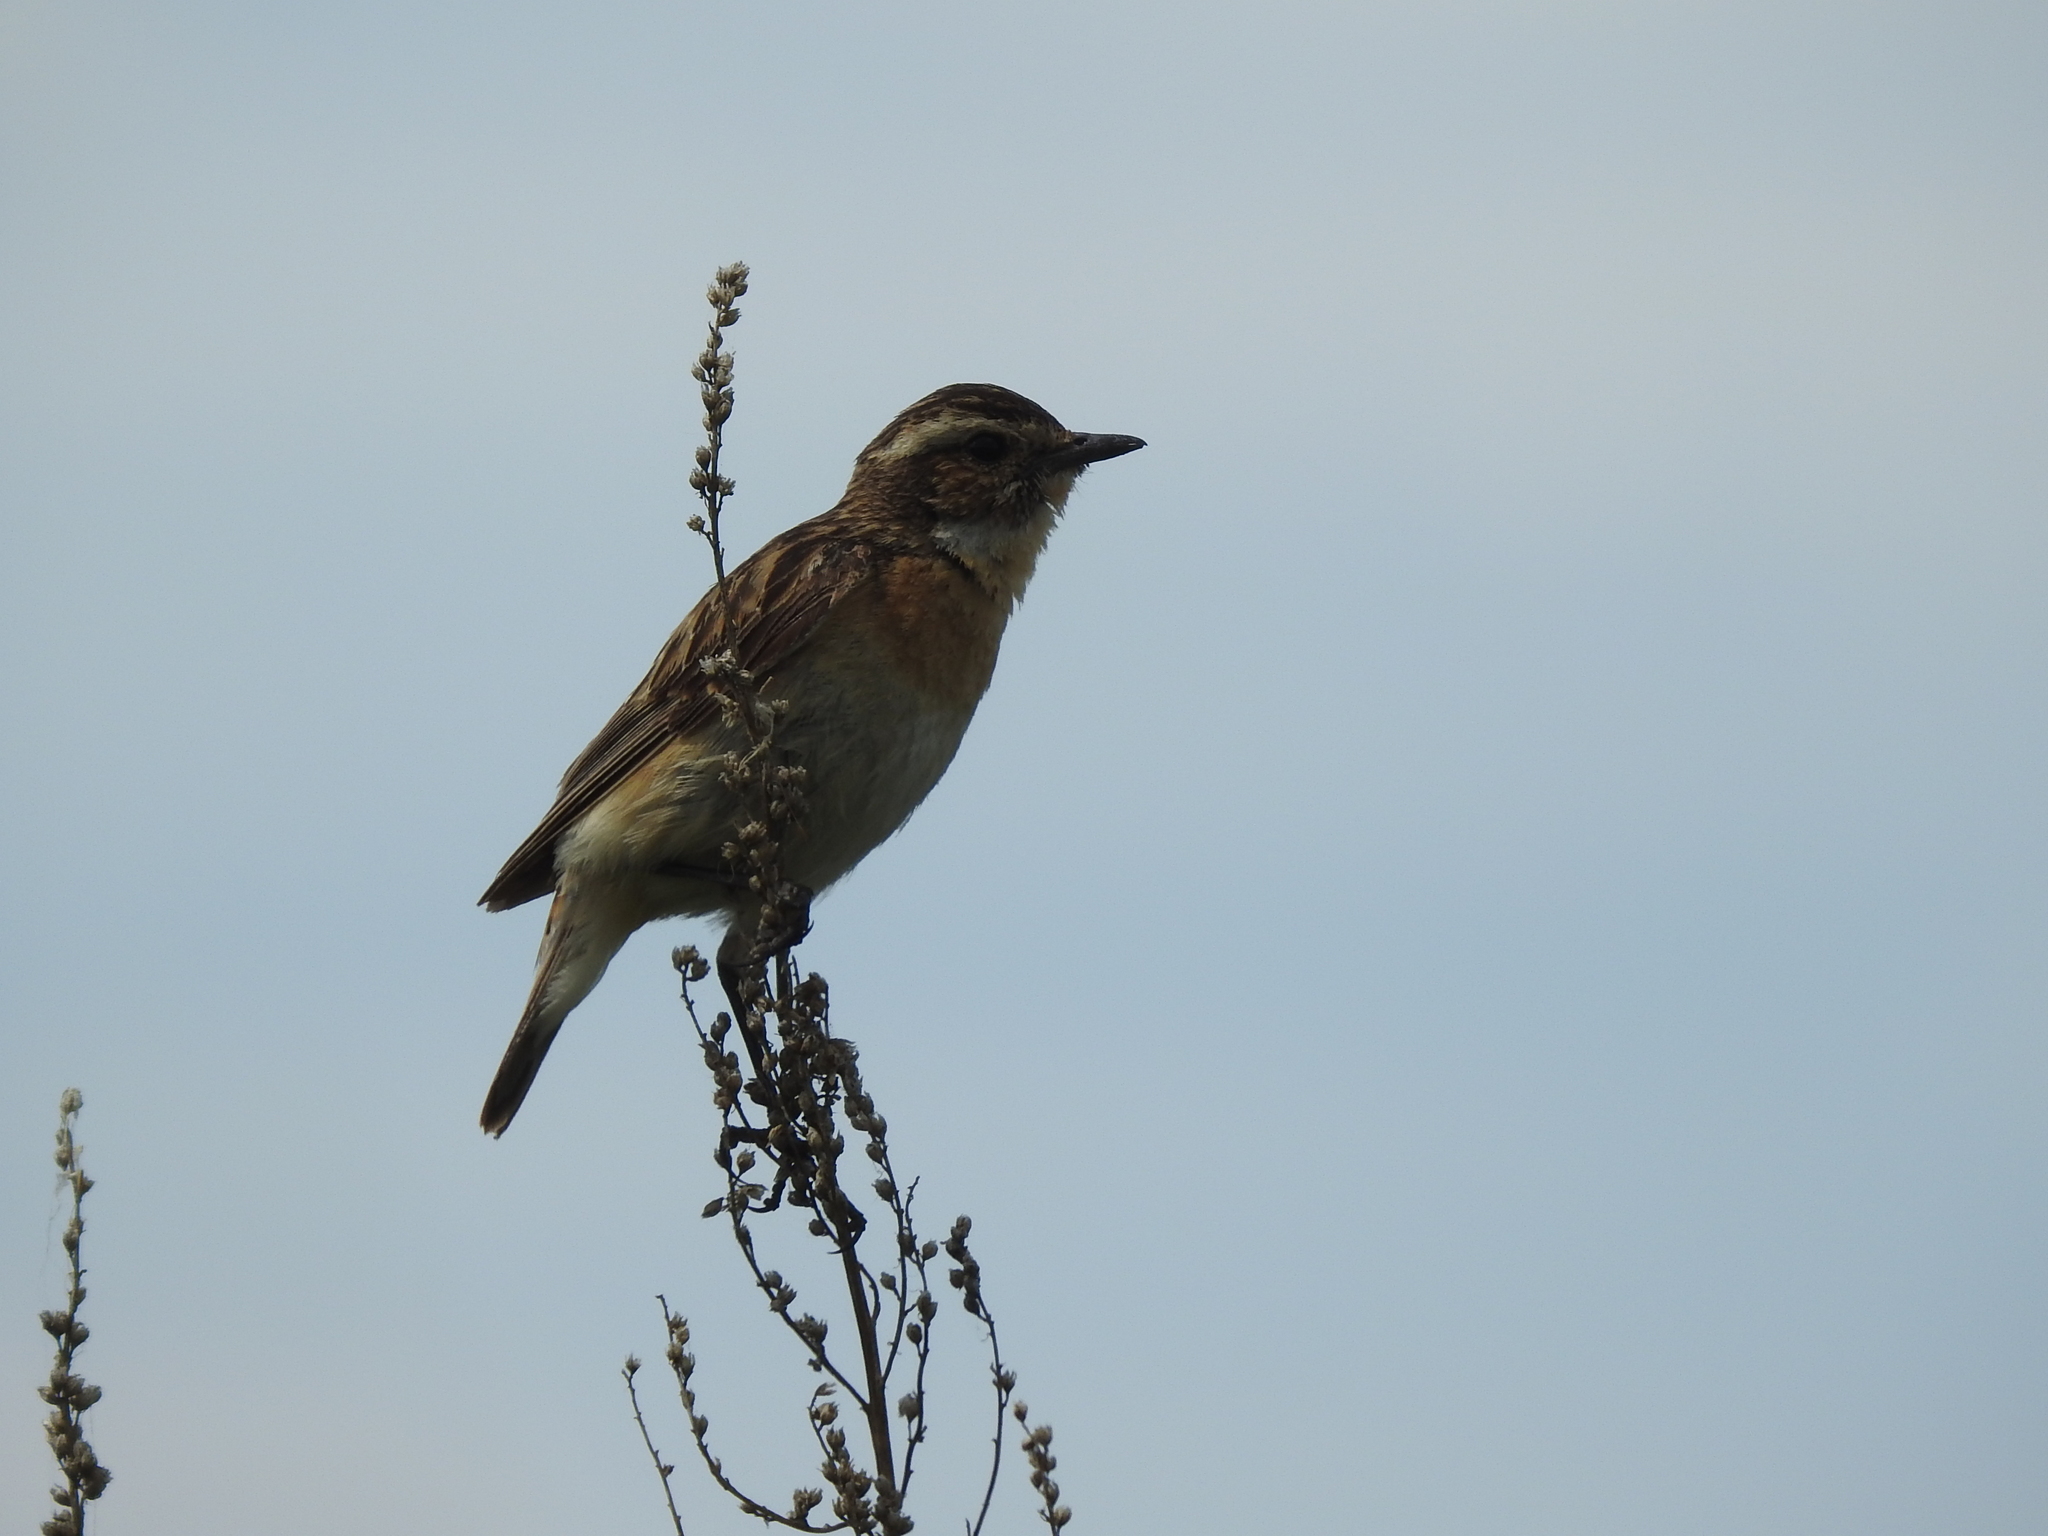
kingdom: Animalia
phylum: Chordata
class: Aves
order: Passeriformes
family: Muscicapidae
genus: Saxicola
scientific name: Saxicola rubetra
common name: Whinchat
